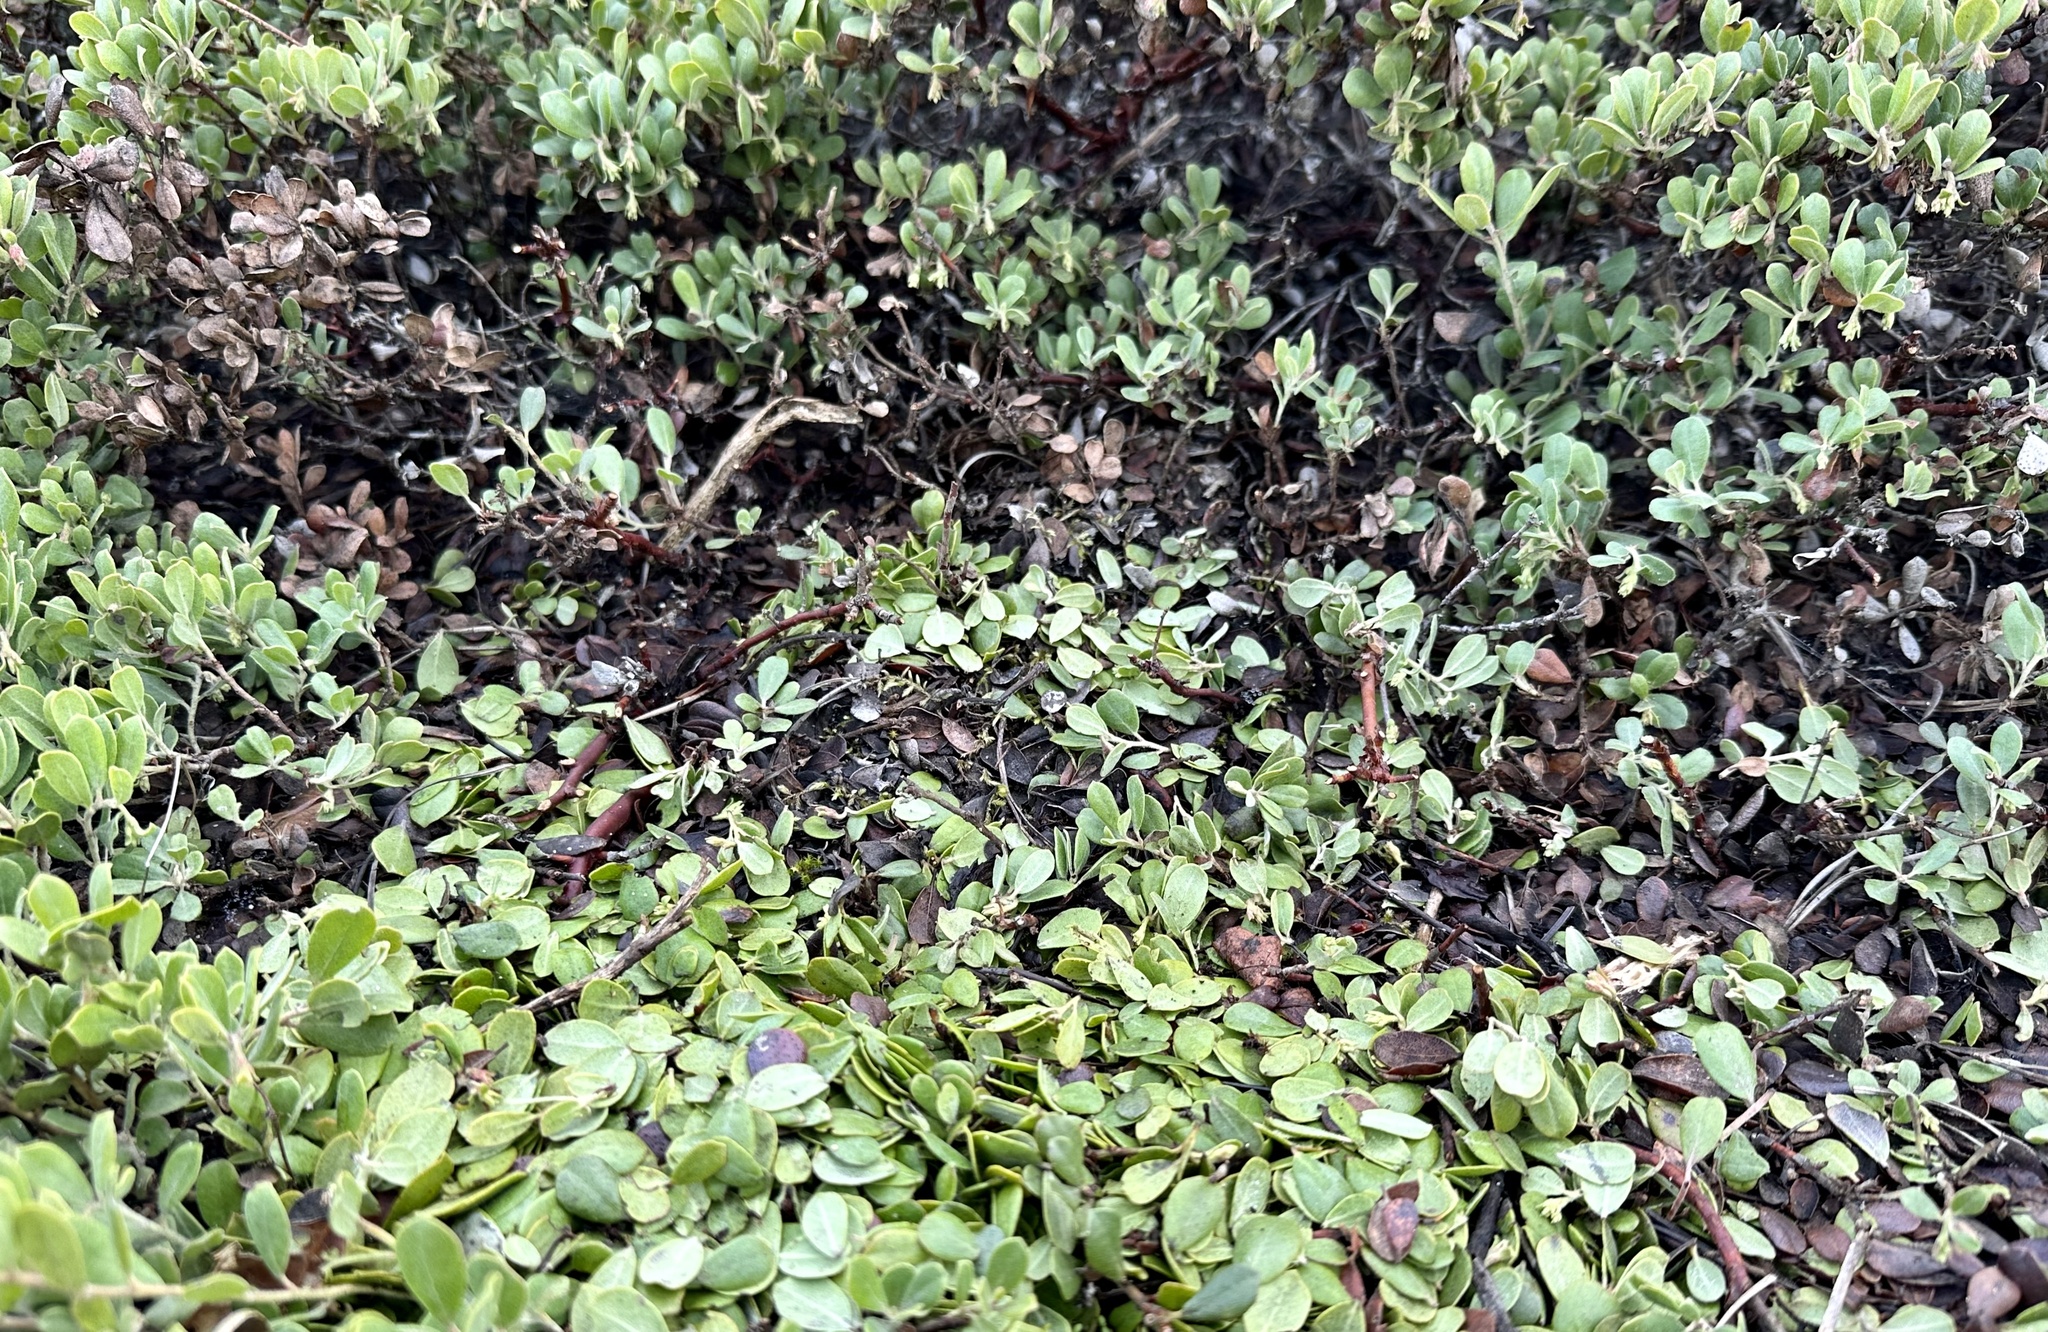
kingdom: Plantae
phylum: Tracheophyta
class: Magnoliopsida
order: Ericales
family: Ericaceae
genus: Arctostaphylos
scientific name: Arctostaphylos pumila
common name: Sandmat manzanita
